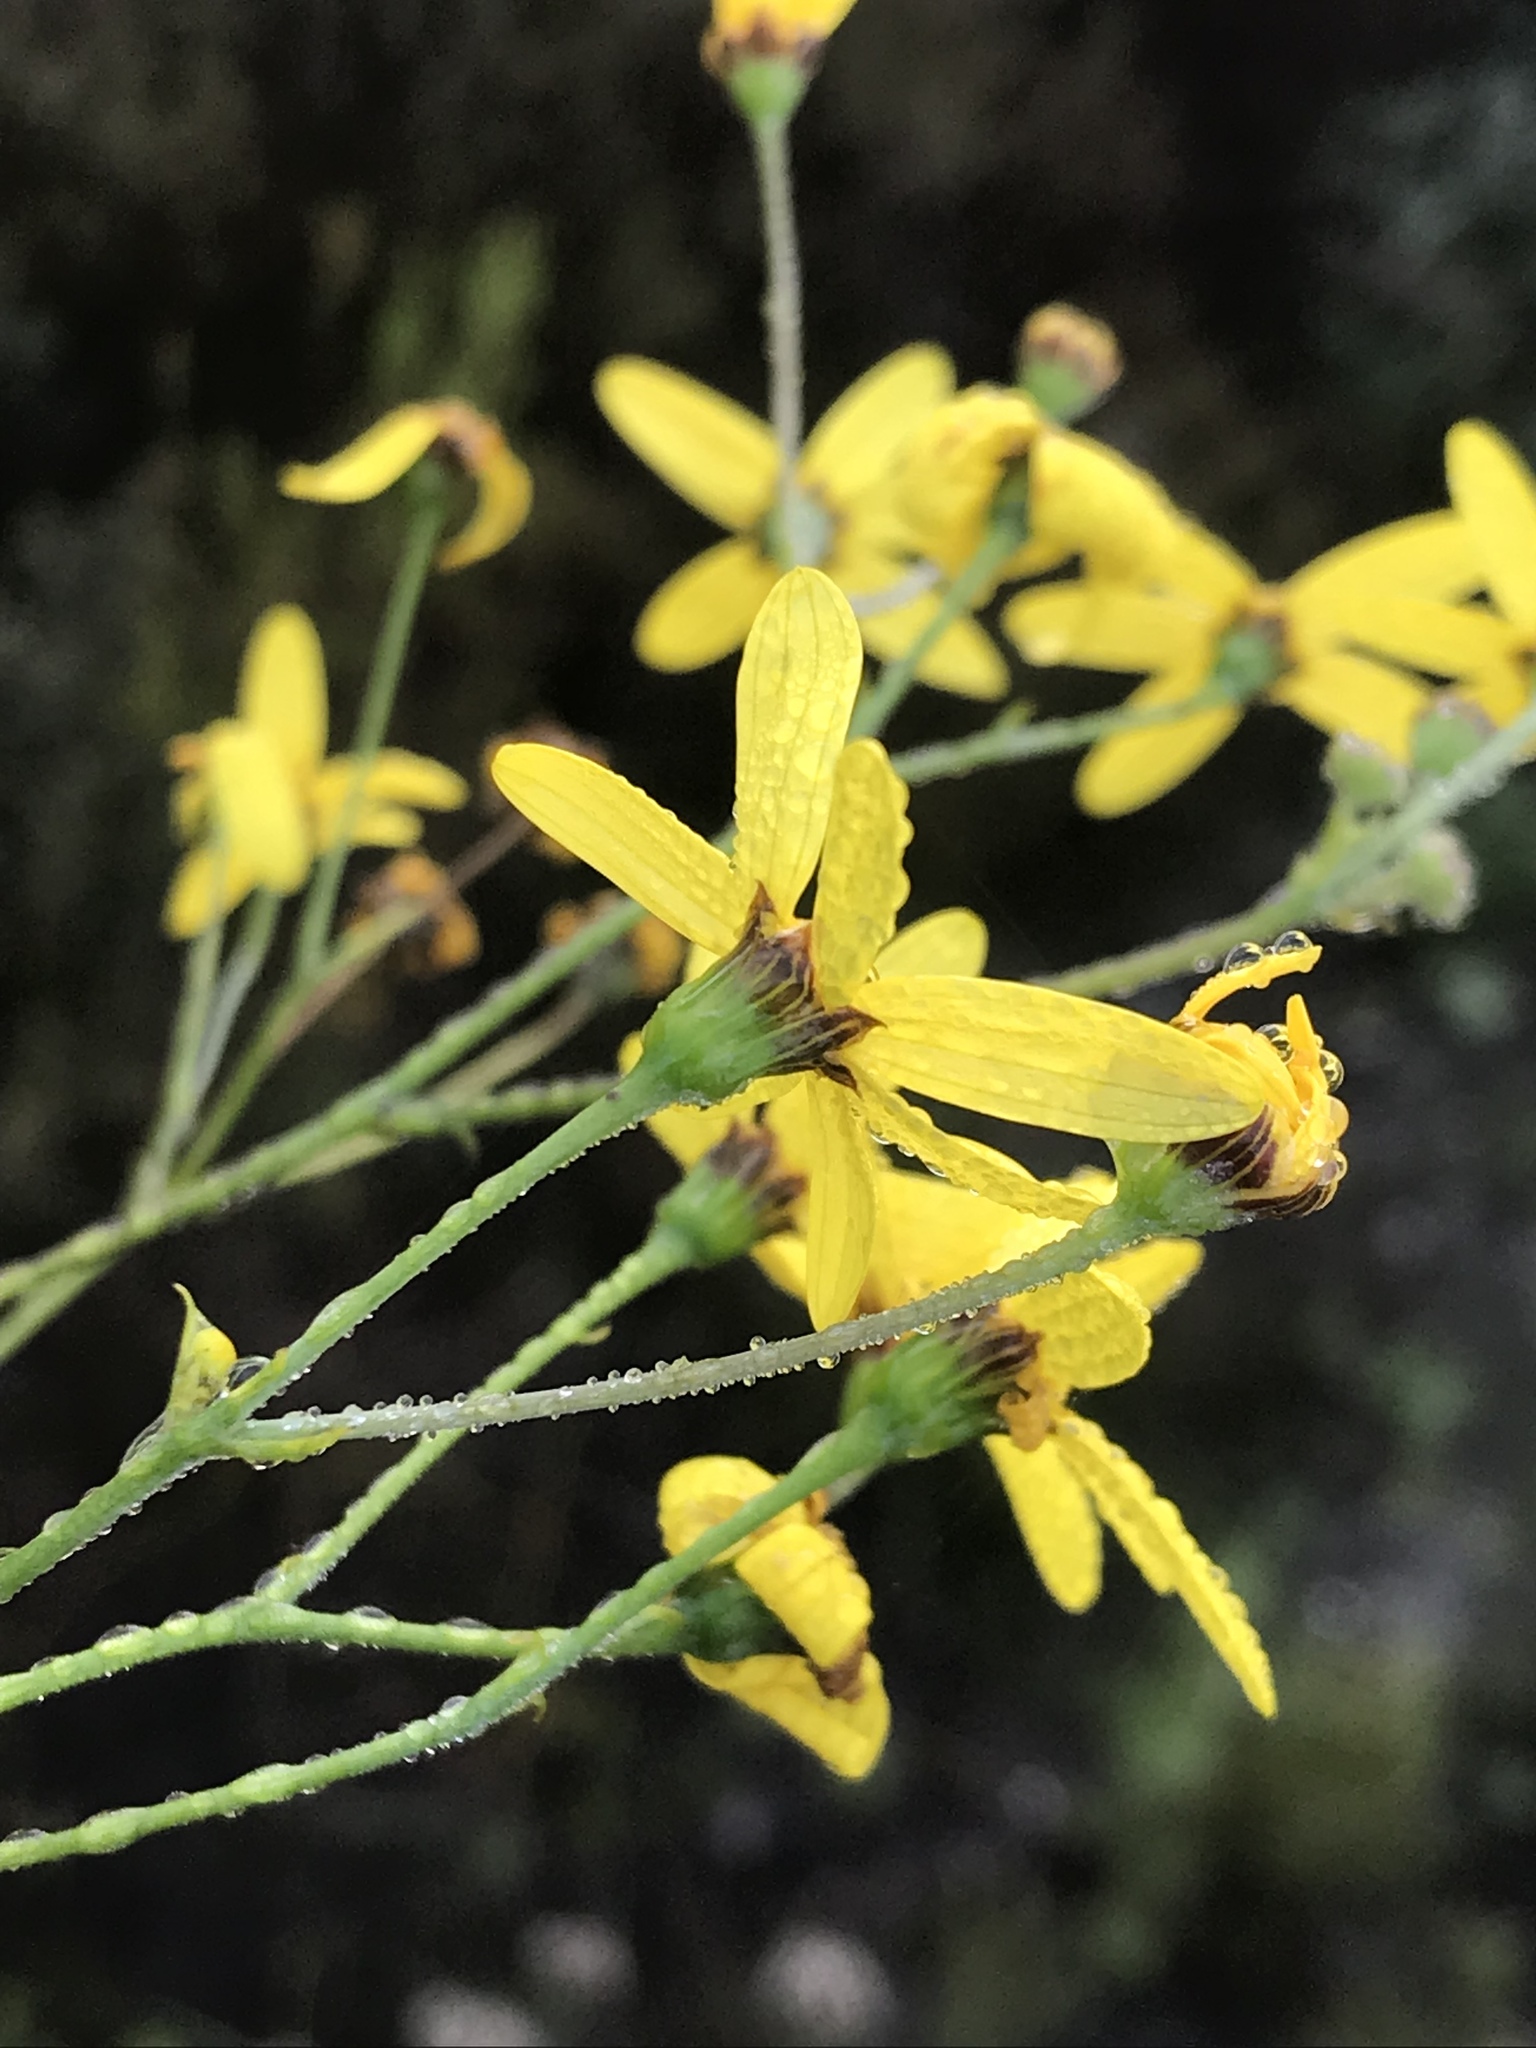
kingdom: Plantae
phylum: Tracheophyta
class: Magnoliopsida
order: Asterales
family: Asteraceae
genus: Othonna
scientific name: Othonna quinquedentata
